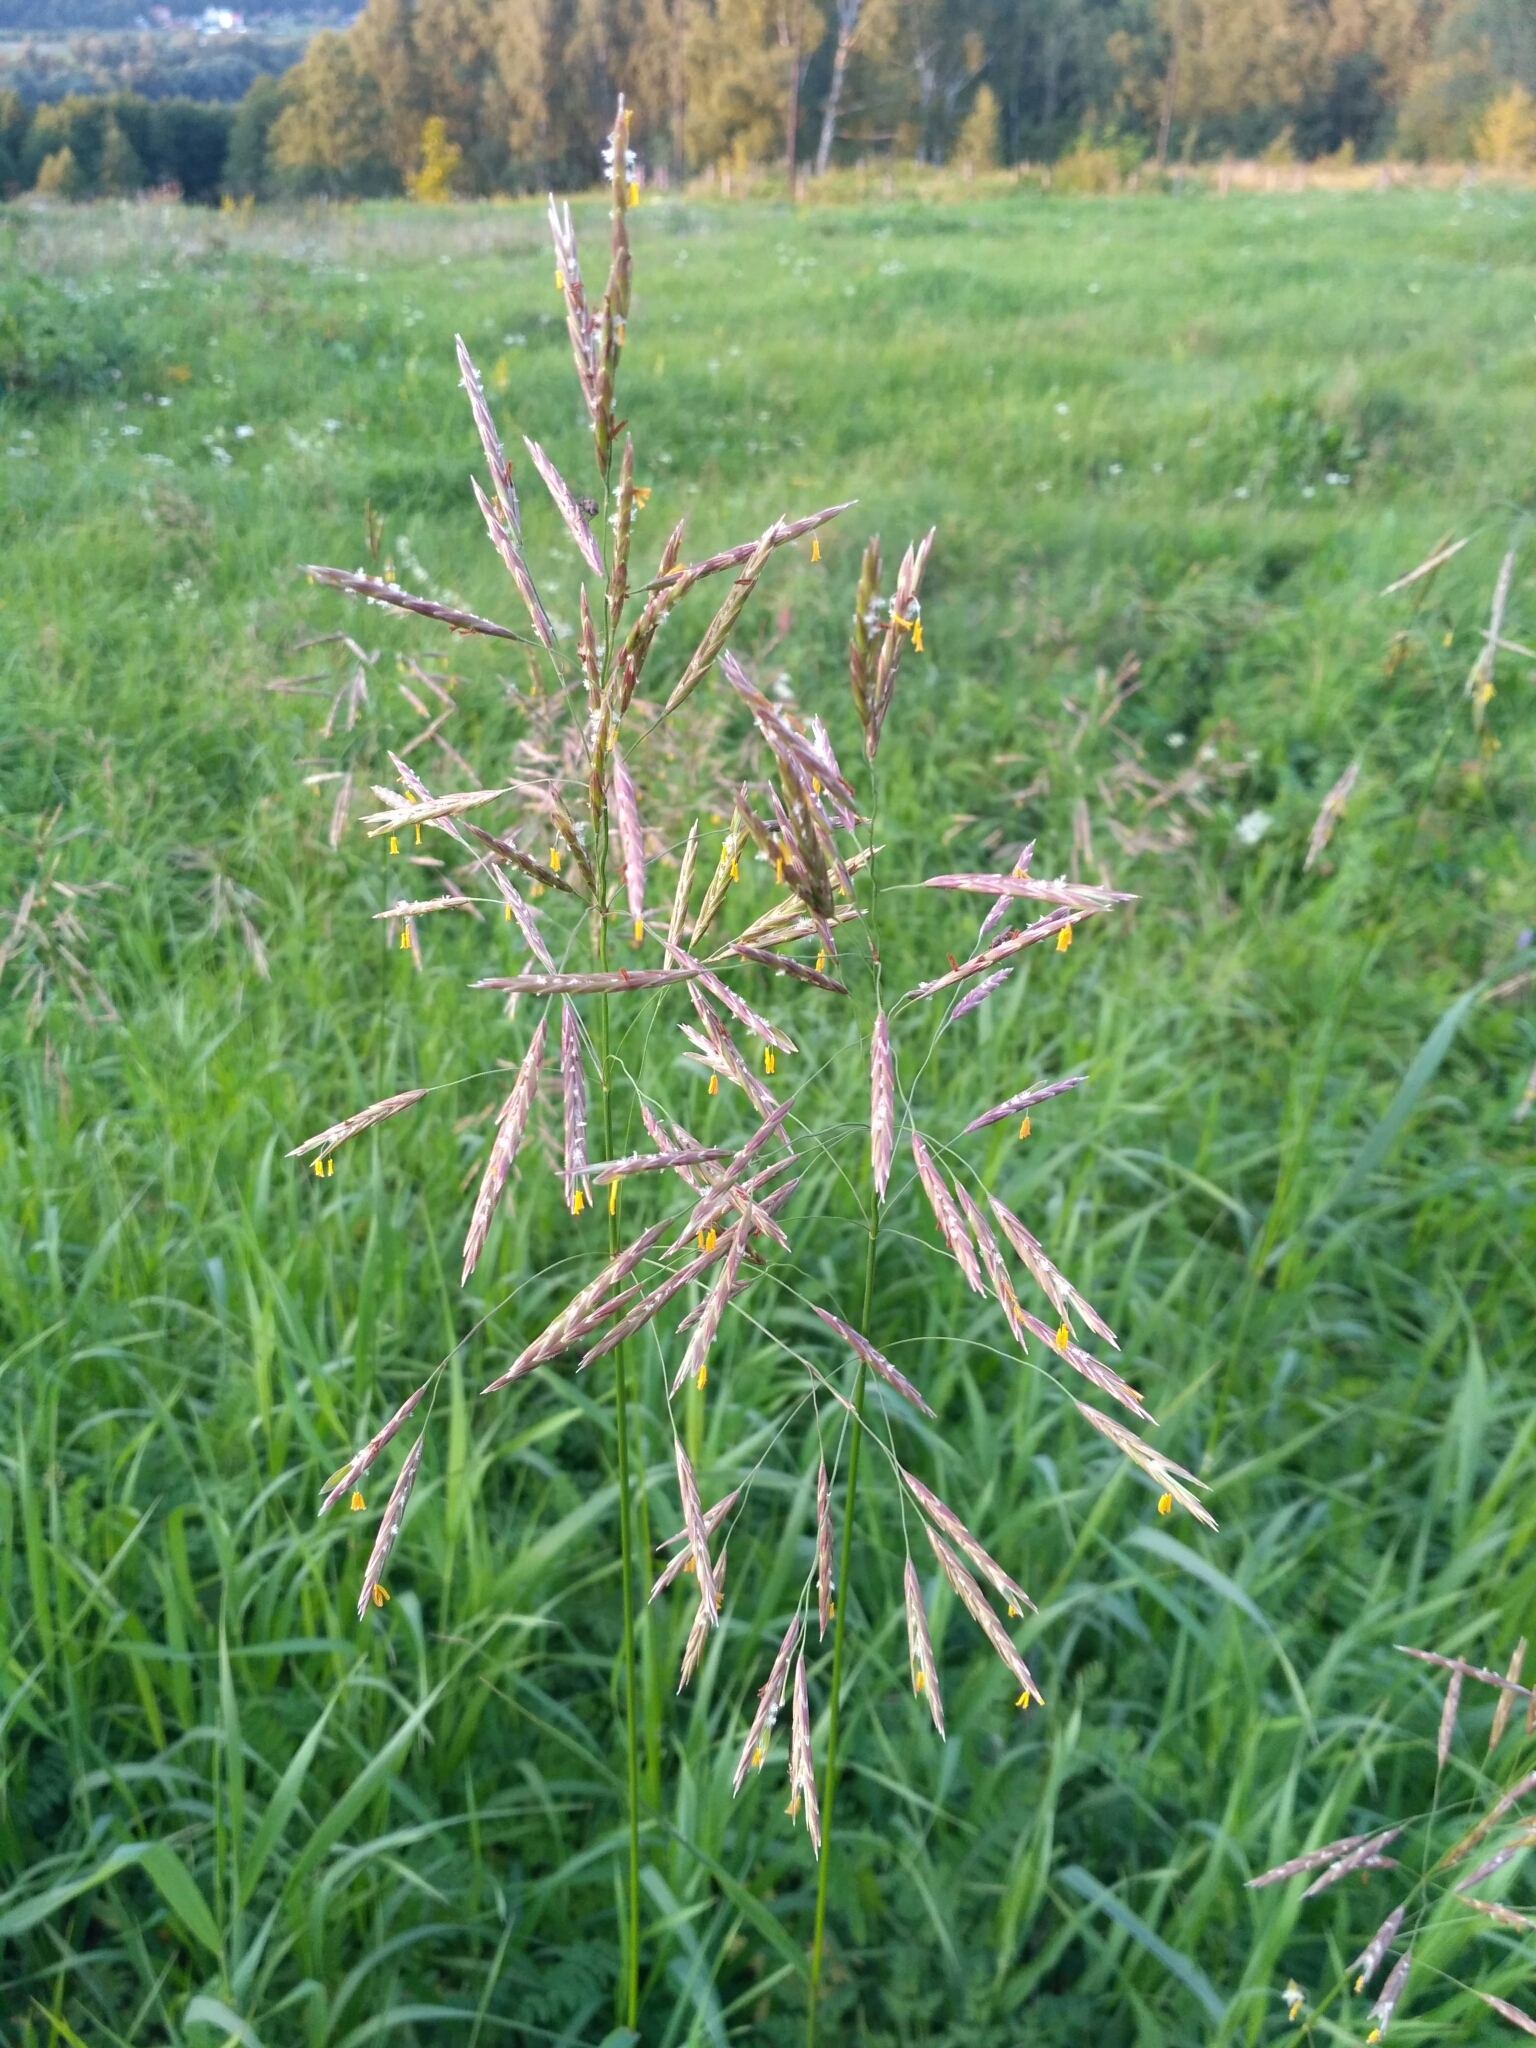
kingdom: Plantae
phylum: Tracheophyta
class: Liliopsida
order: Poales
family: Poaceae
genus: Bromus
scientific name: Bromus inermis
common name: Smooth brome
